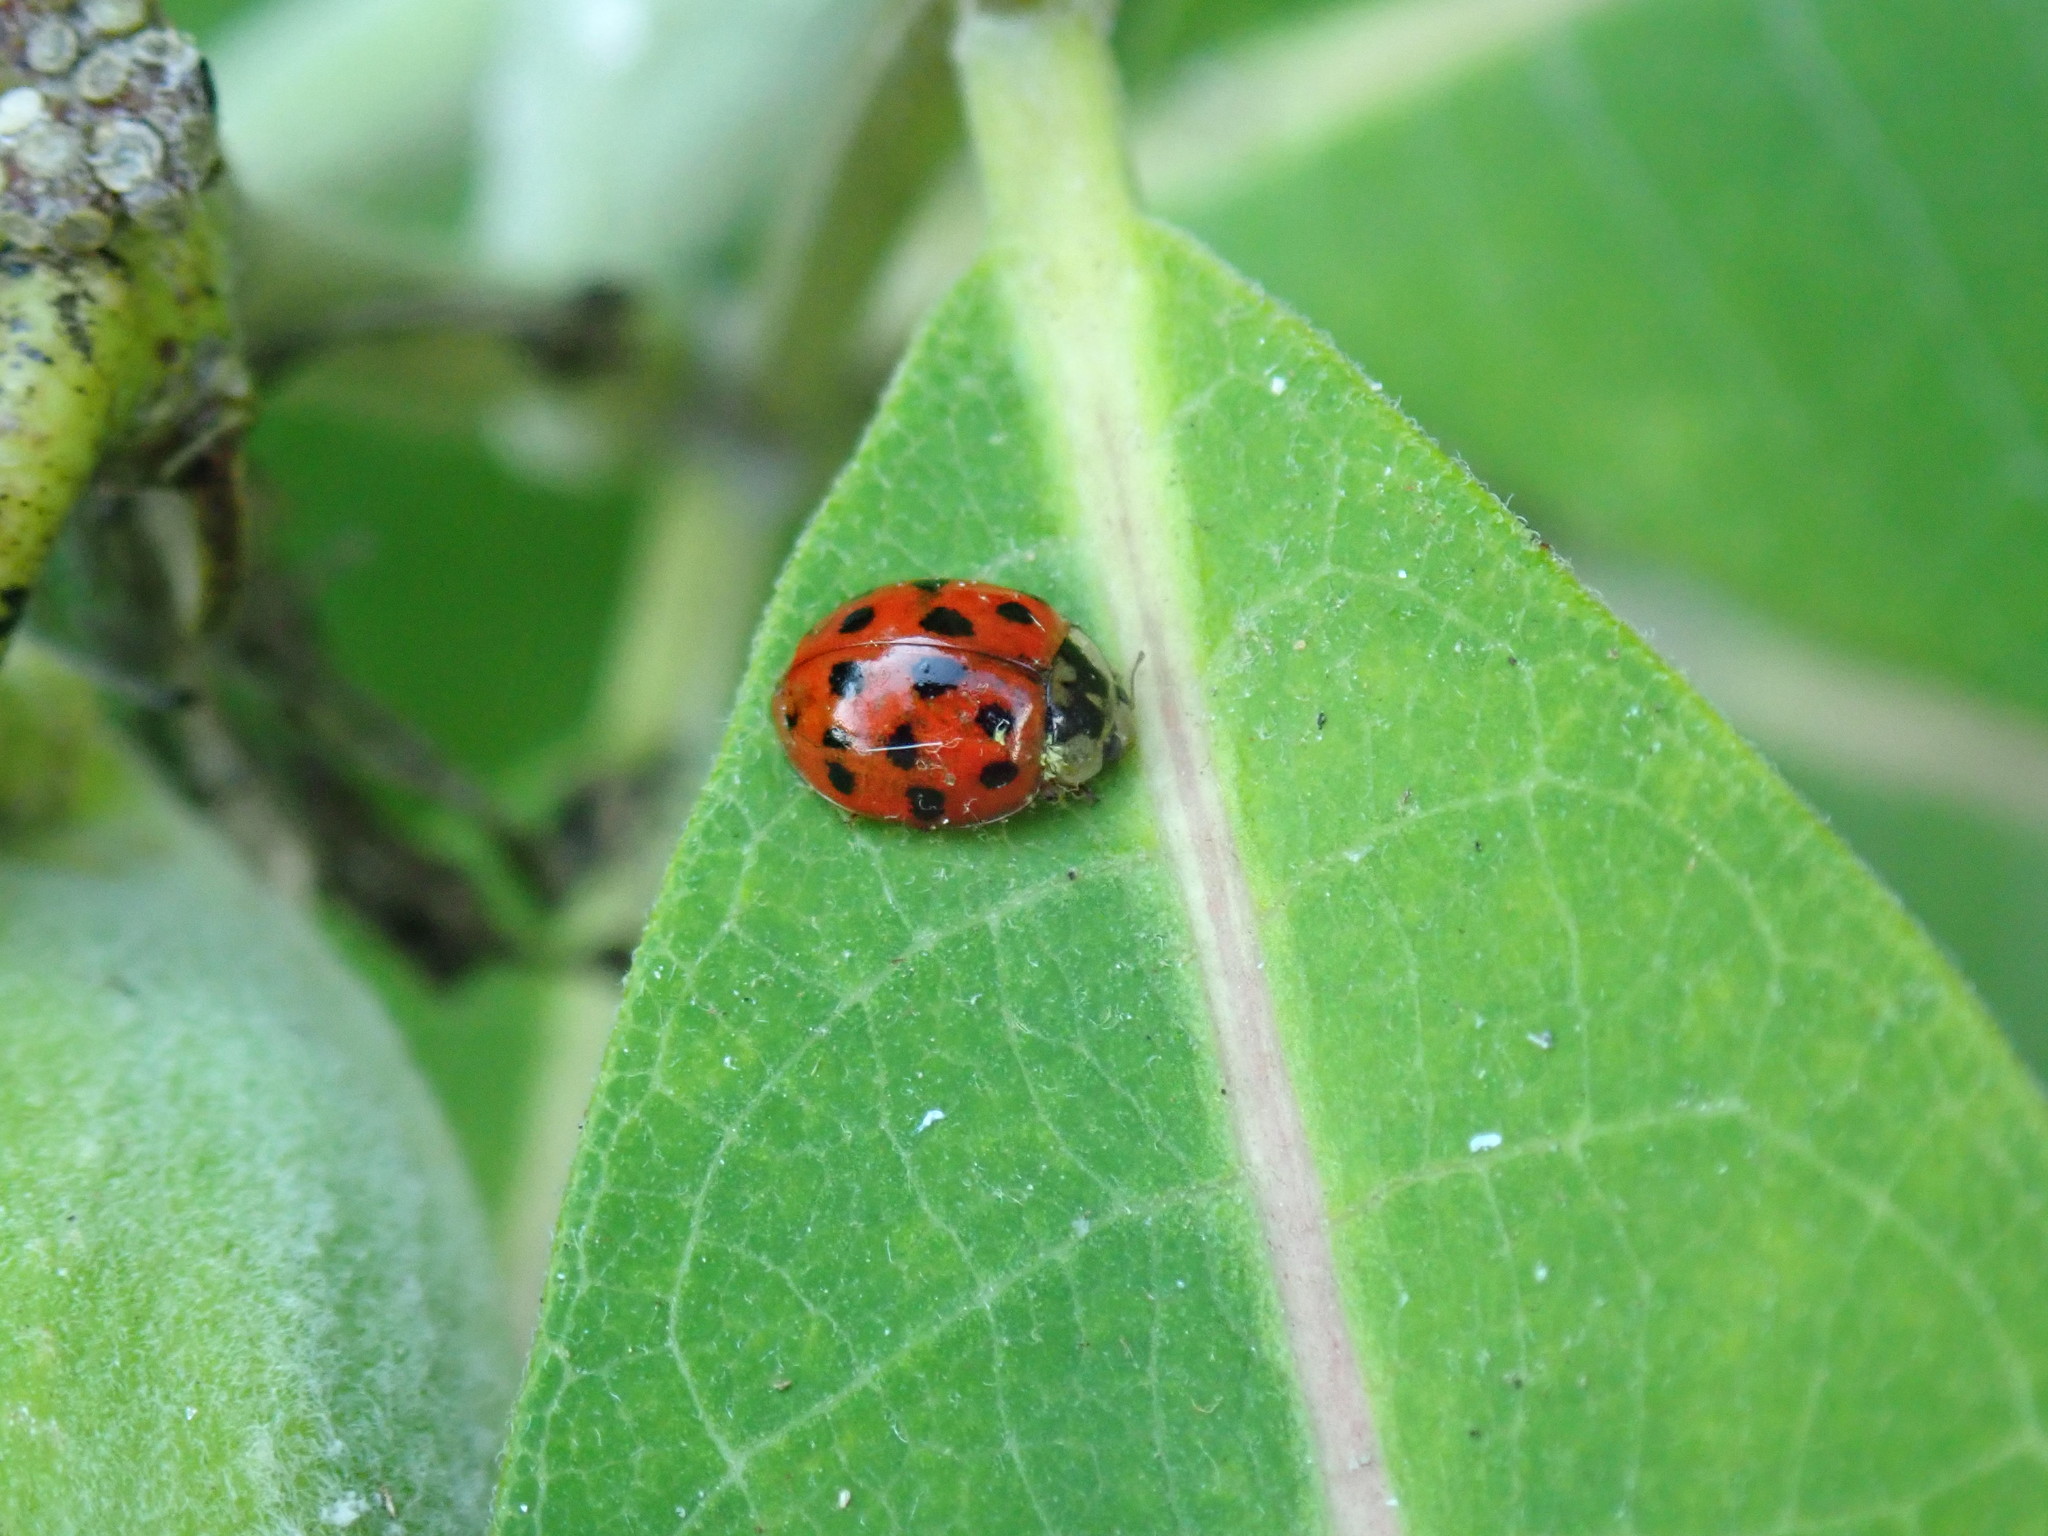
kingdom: Animalia
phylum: Arthropoda
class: Insecta
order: Coleoptera
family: Coccinellidae
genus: Harmonia
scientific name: Harmonia axyridis
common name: Harlequin ladybird
